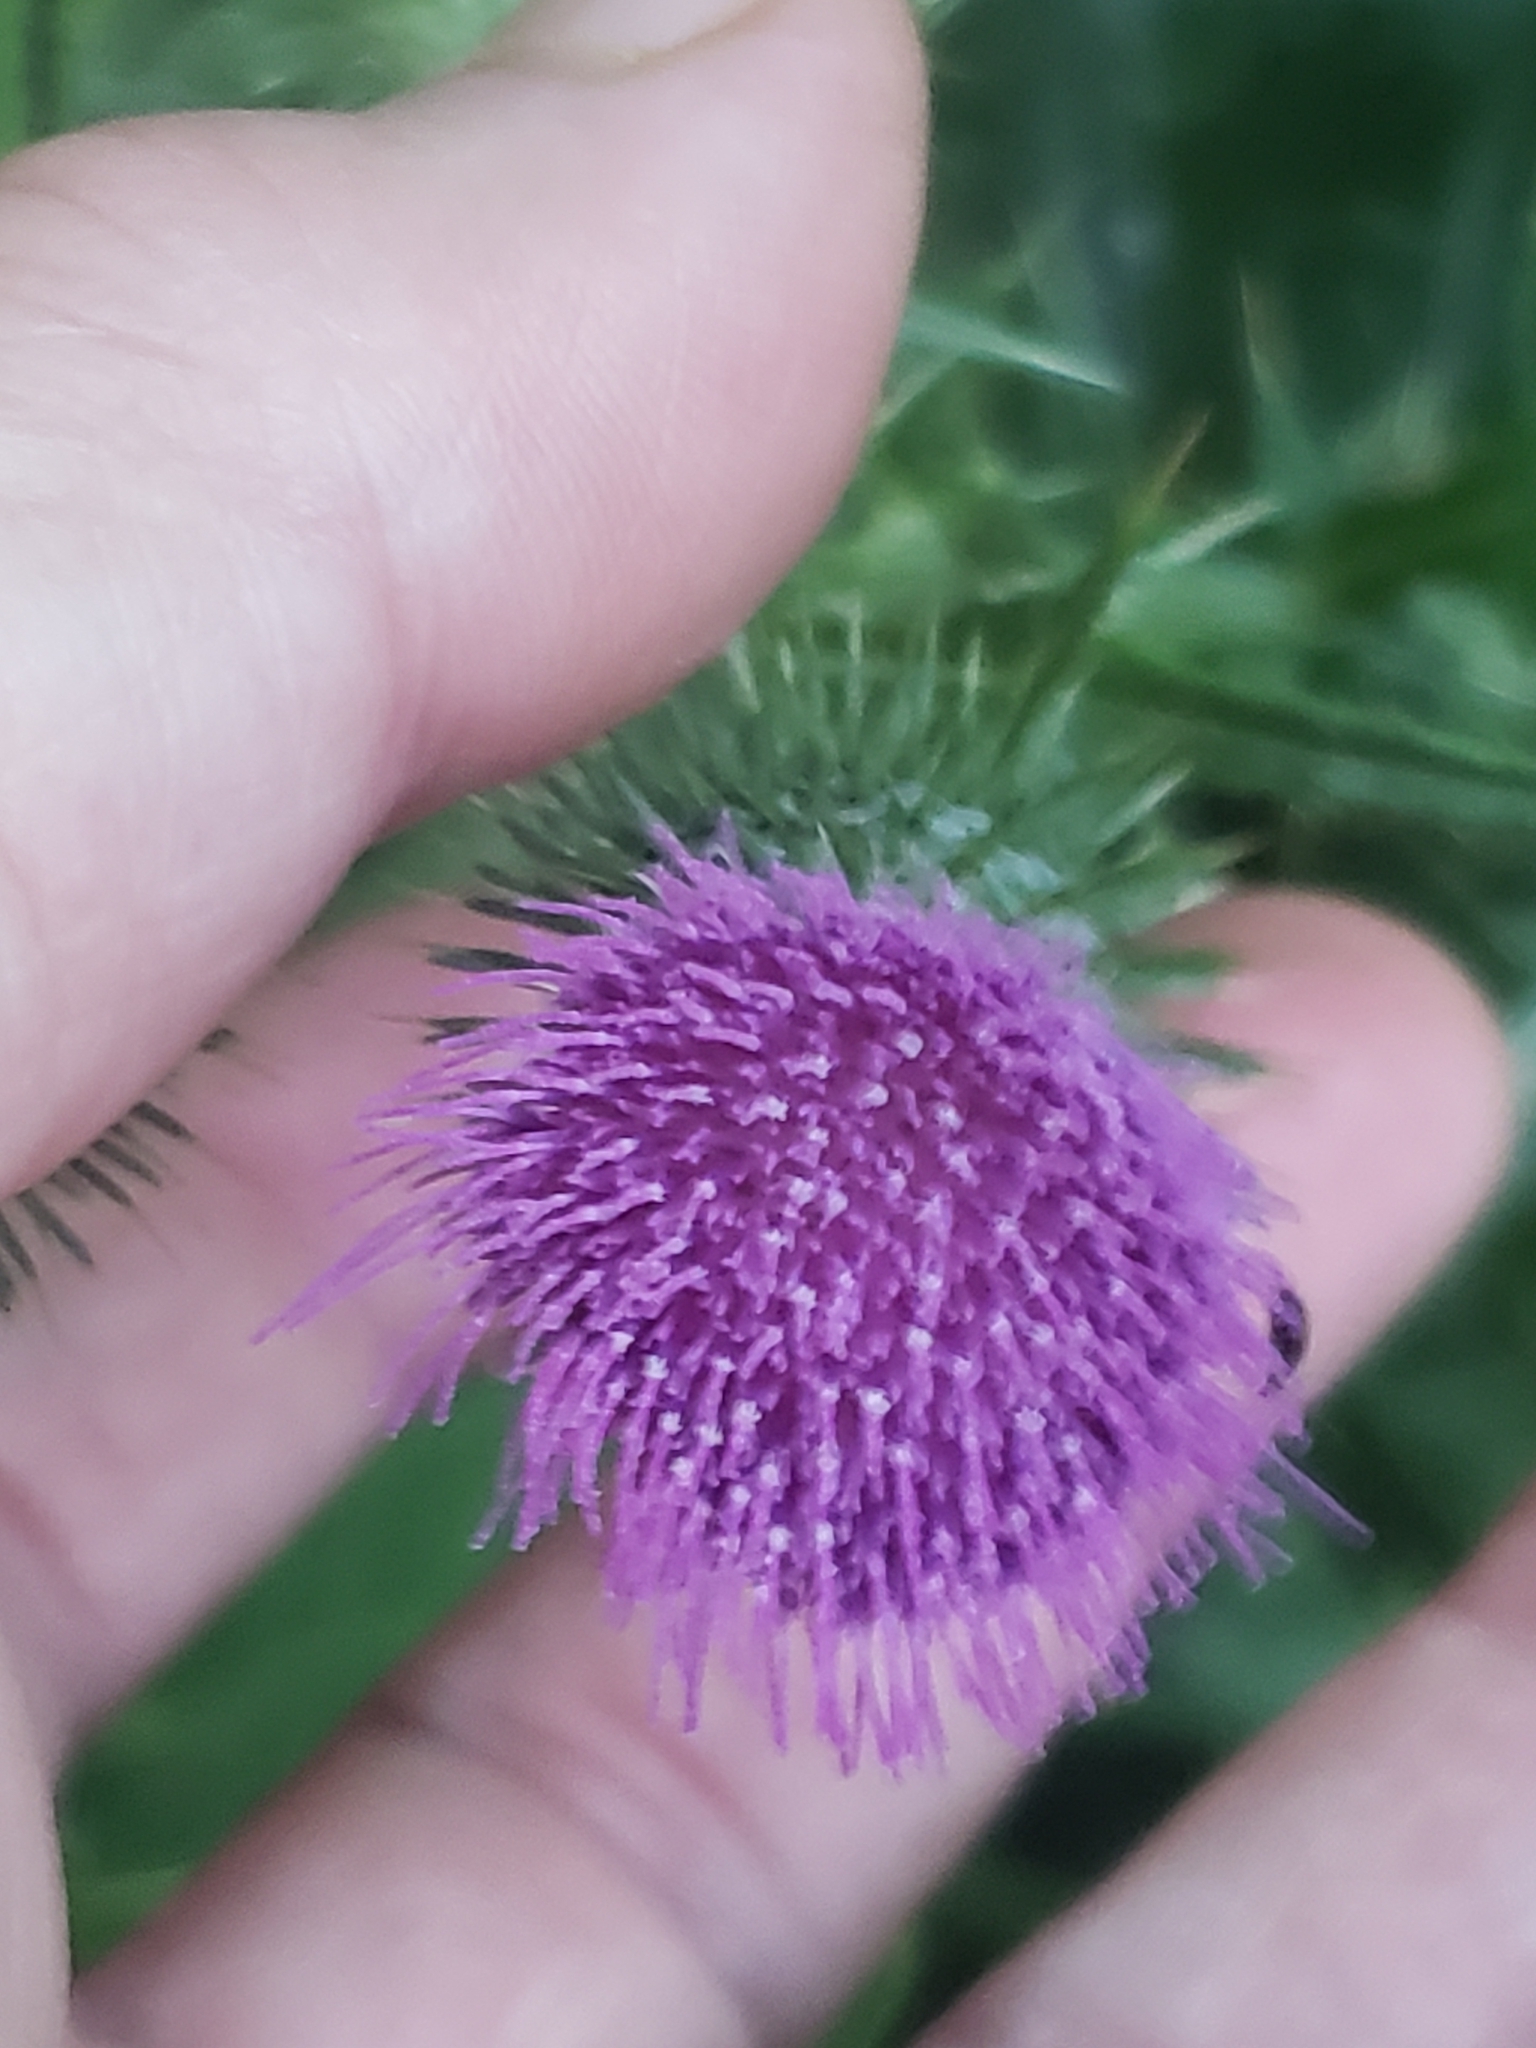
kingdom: Plantae
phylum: Tracheophyta
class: Magnoliopsida
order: Asterales
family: Asteraceae
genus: Cirsium
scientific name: Cirsium vulgare
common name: Bull thistle
